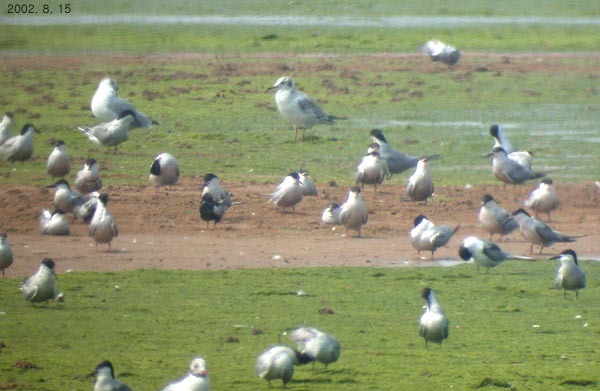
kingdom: Animalia
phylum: Chordata
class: Aves
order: Charadriiformes
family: Laridae
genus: Sterna
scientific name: Sterna hirundo
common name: Common tern
